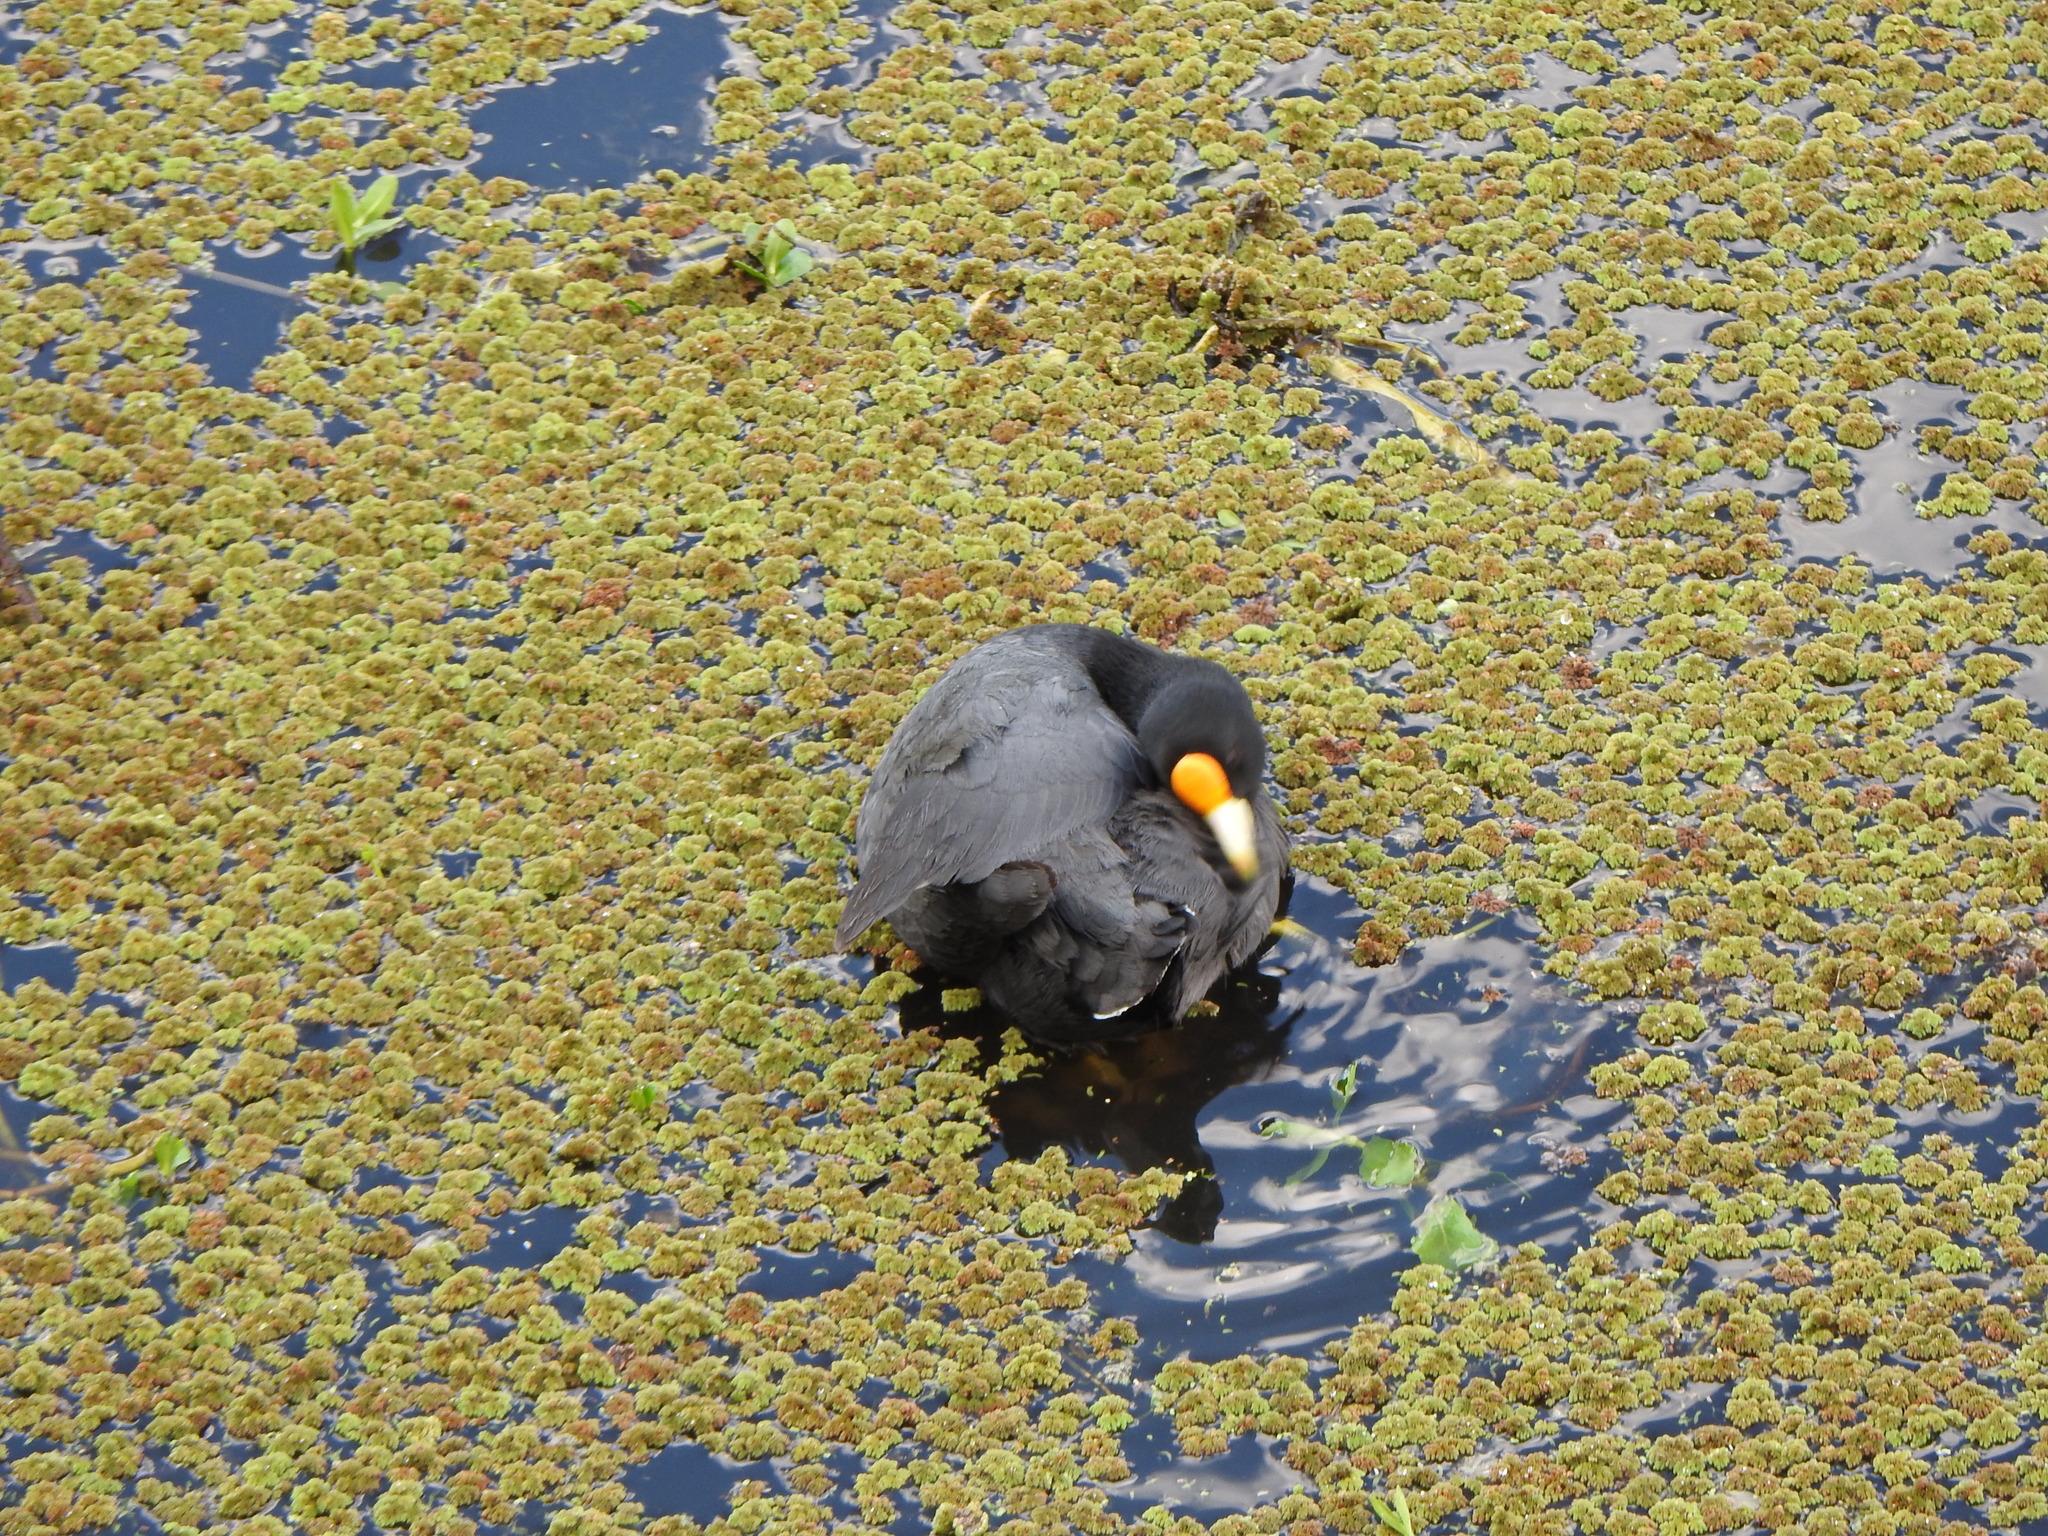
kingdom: Animalia
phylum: Chordata
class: Aves
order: Gruiformes
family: Rallidae
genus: Fulica
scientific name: Fulica leucoptera
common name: White-winged coot
